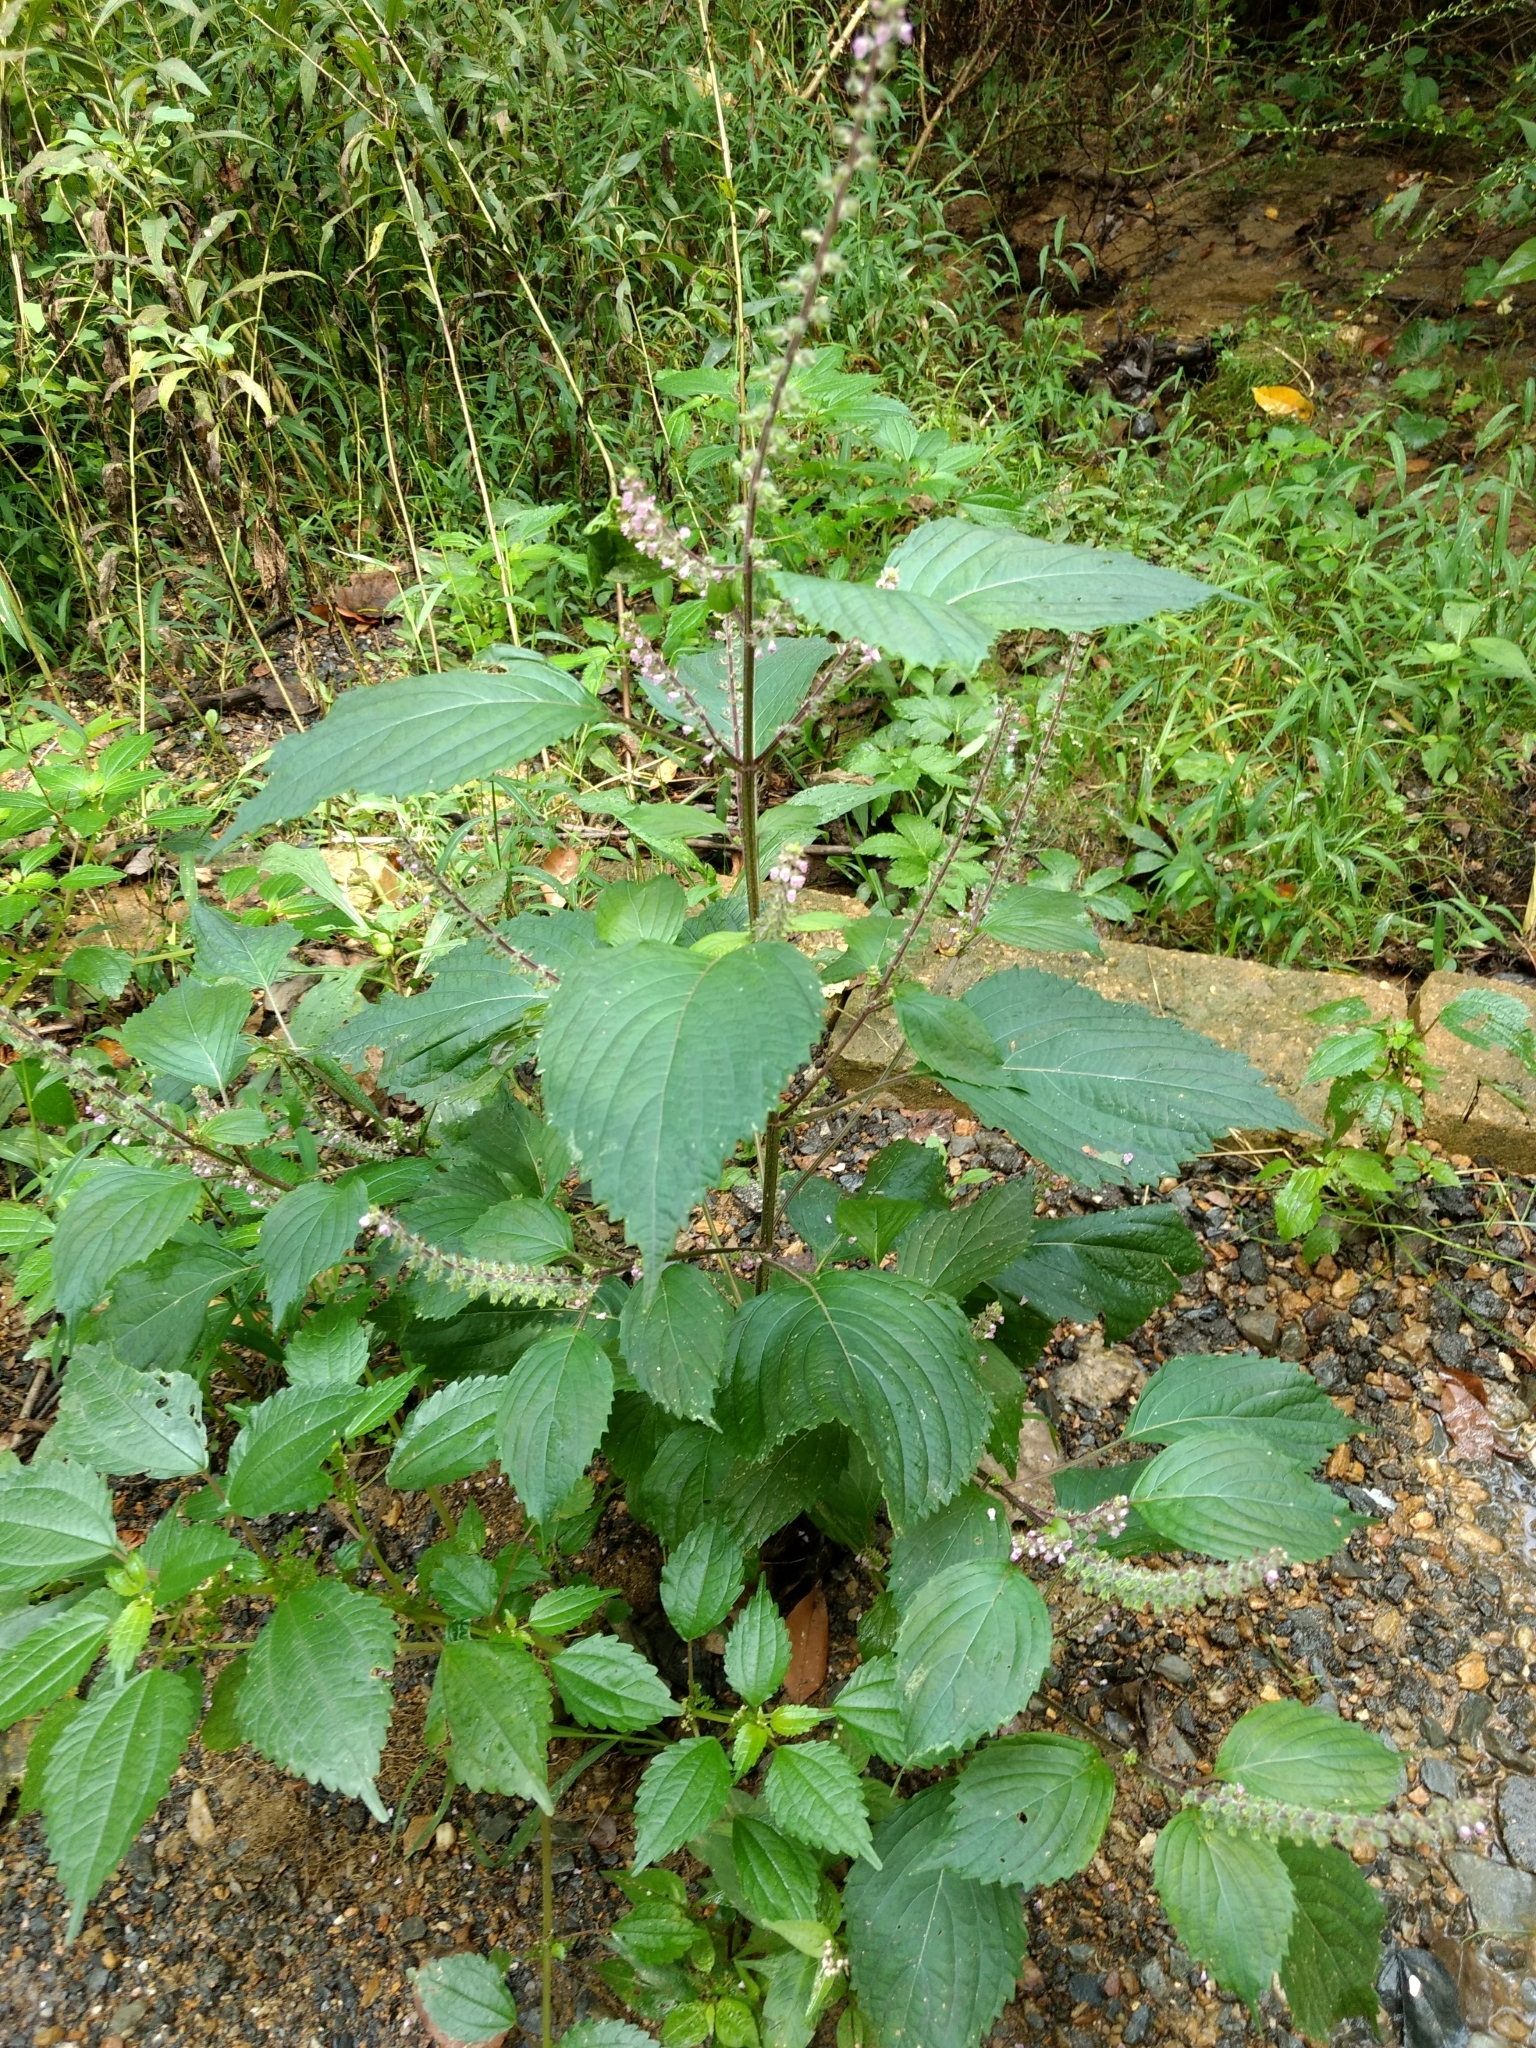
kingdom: Plantae
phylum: Tracheophyta
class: Magnoliopsida
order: Lamiales
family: Lamiaceae
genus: Perilla
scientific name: Perilla frutescens
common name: Perilla
